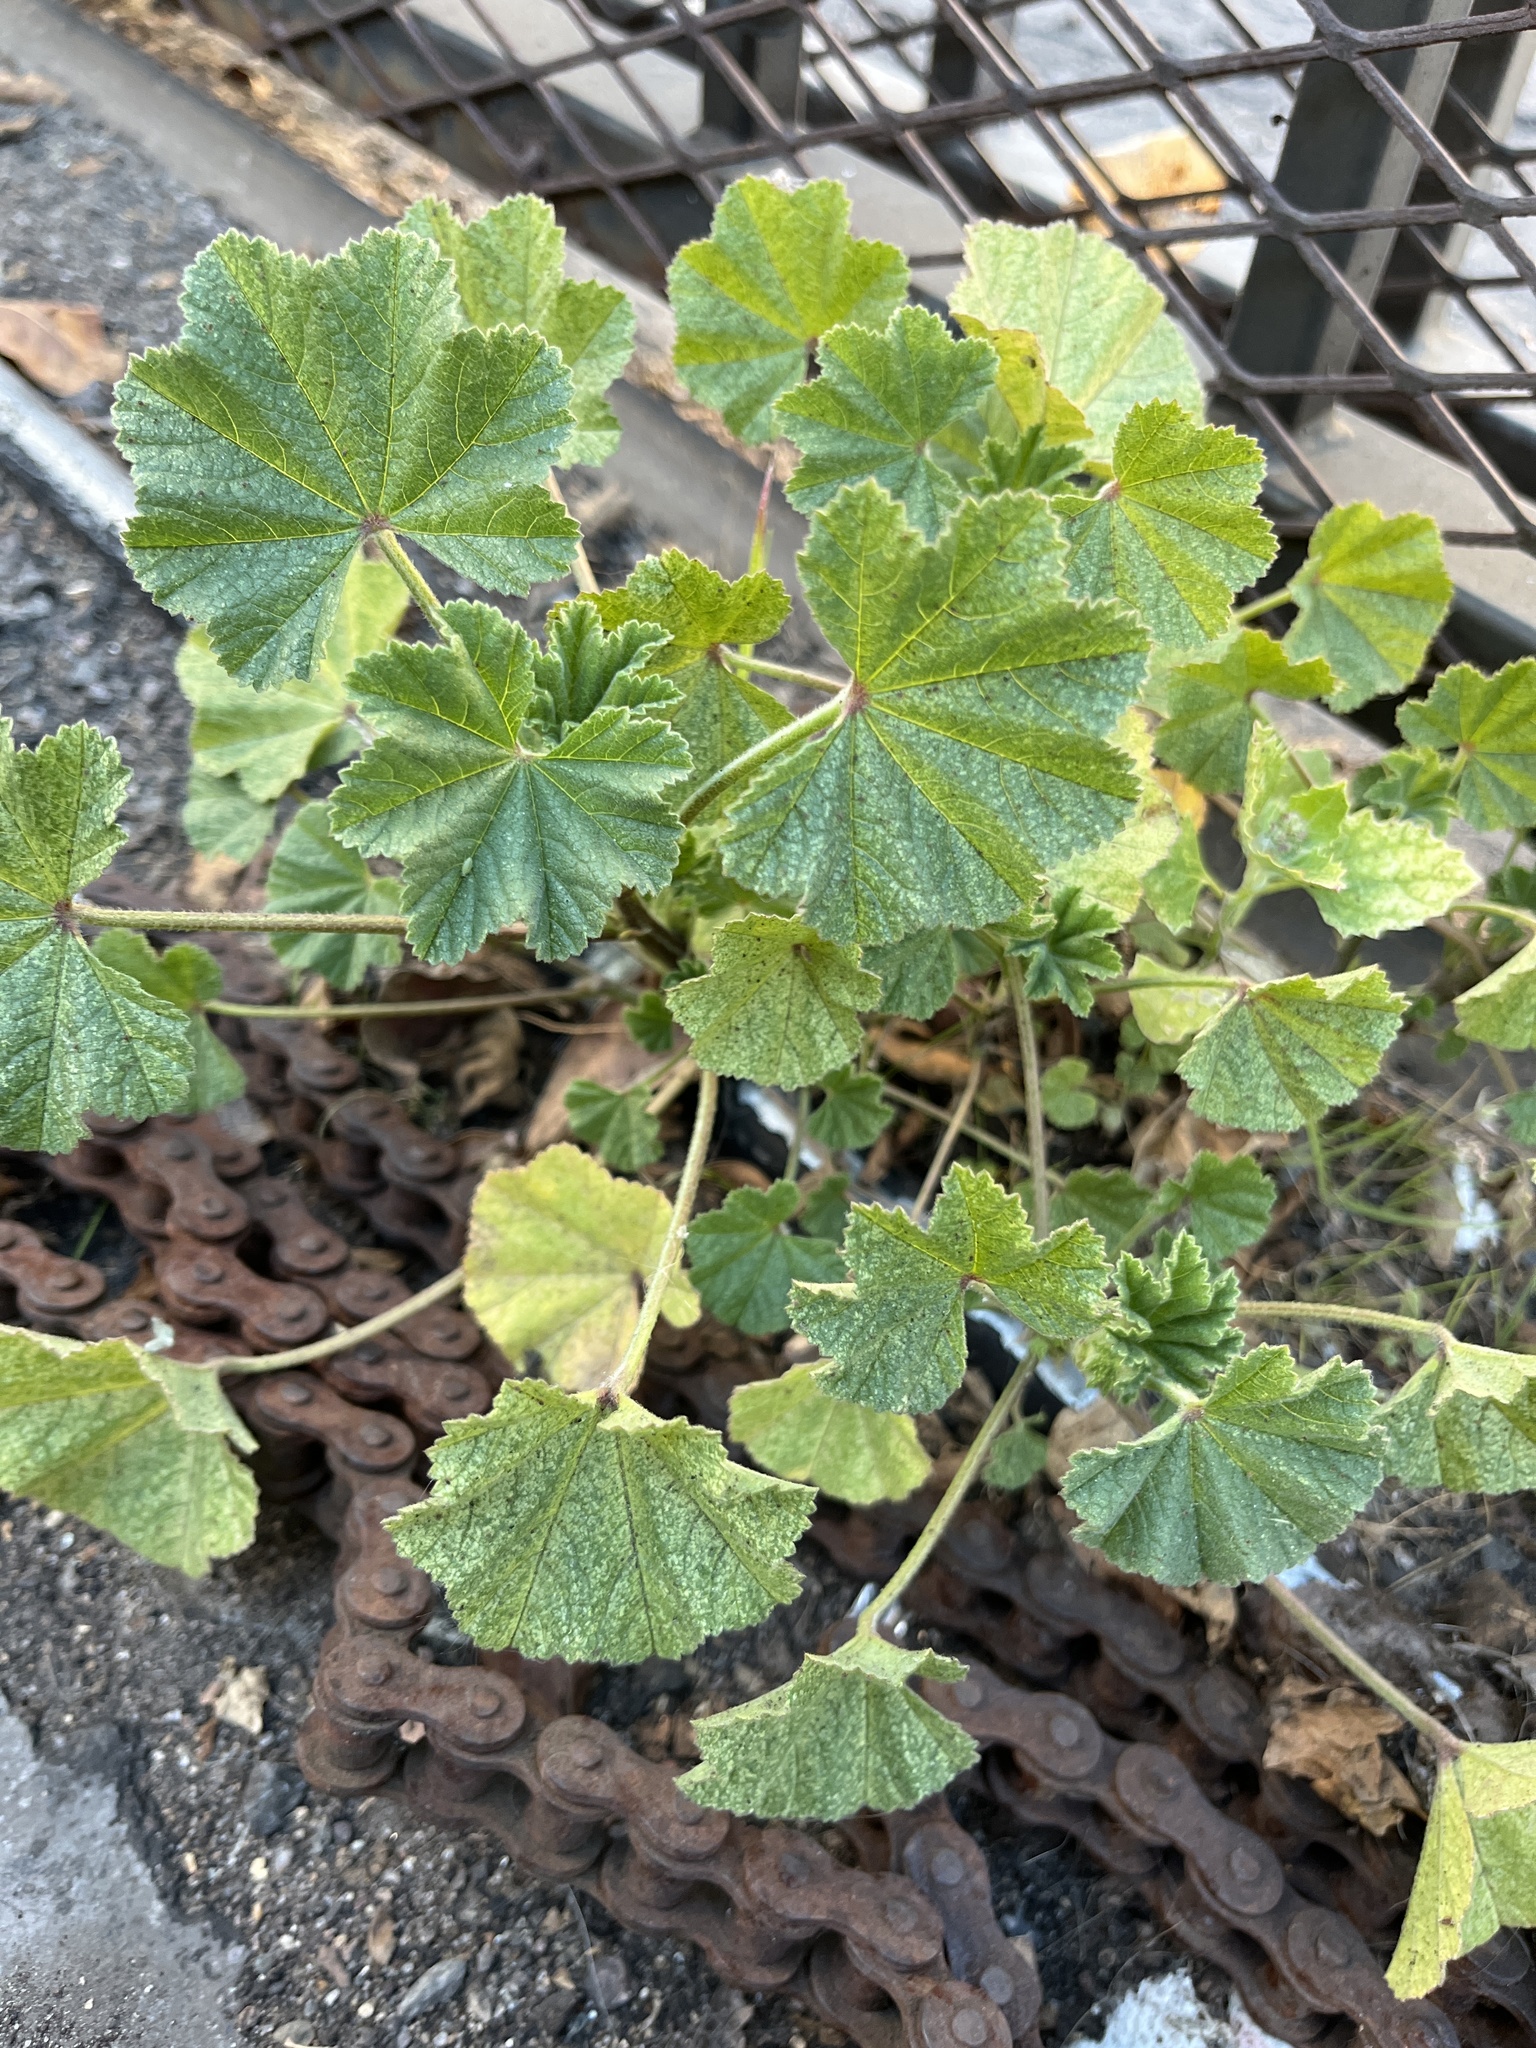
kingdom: Plantae
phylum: Tracheophyta
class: Magnoliopsida
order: Malvales
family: Malvaceae
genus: Malva
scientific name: Malva parviflora
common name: Least mallow
